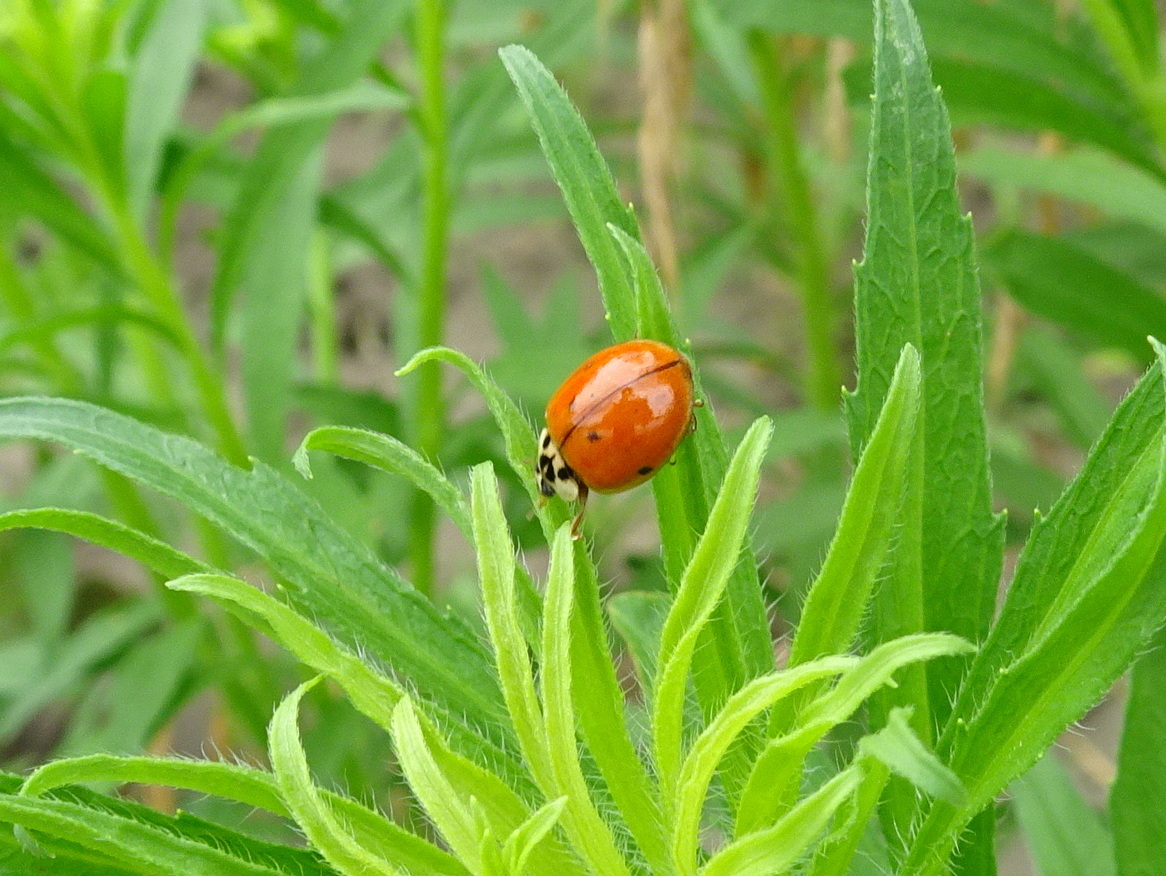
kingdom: Animalia
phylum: Arthropoda
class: Insecta
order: Coleoptera
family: Coccinellidae
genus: Harmonia
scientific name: Harmonia axyridis
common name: Harlequin ladybird
